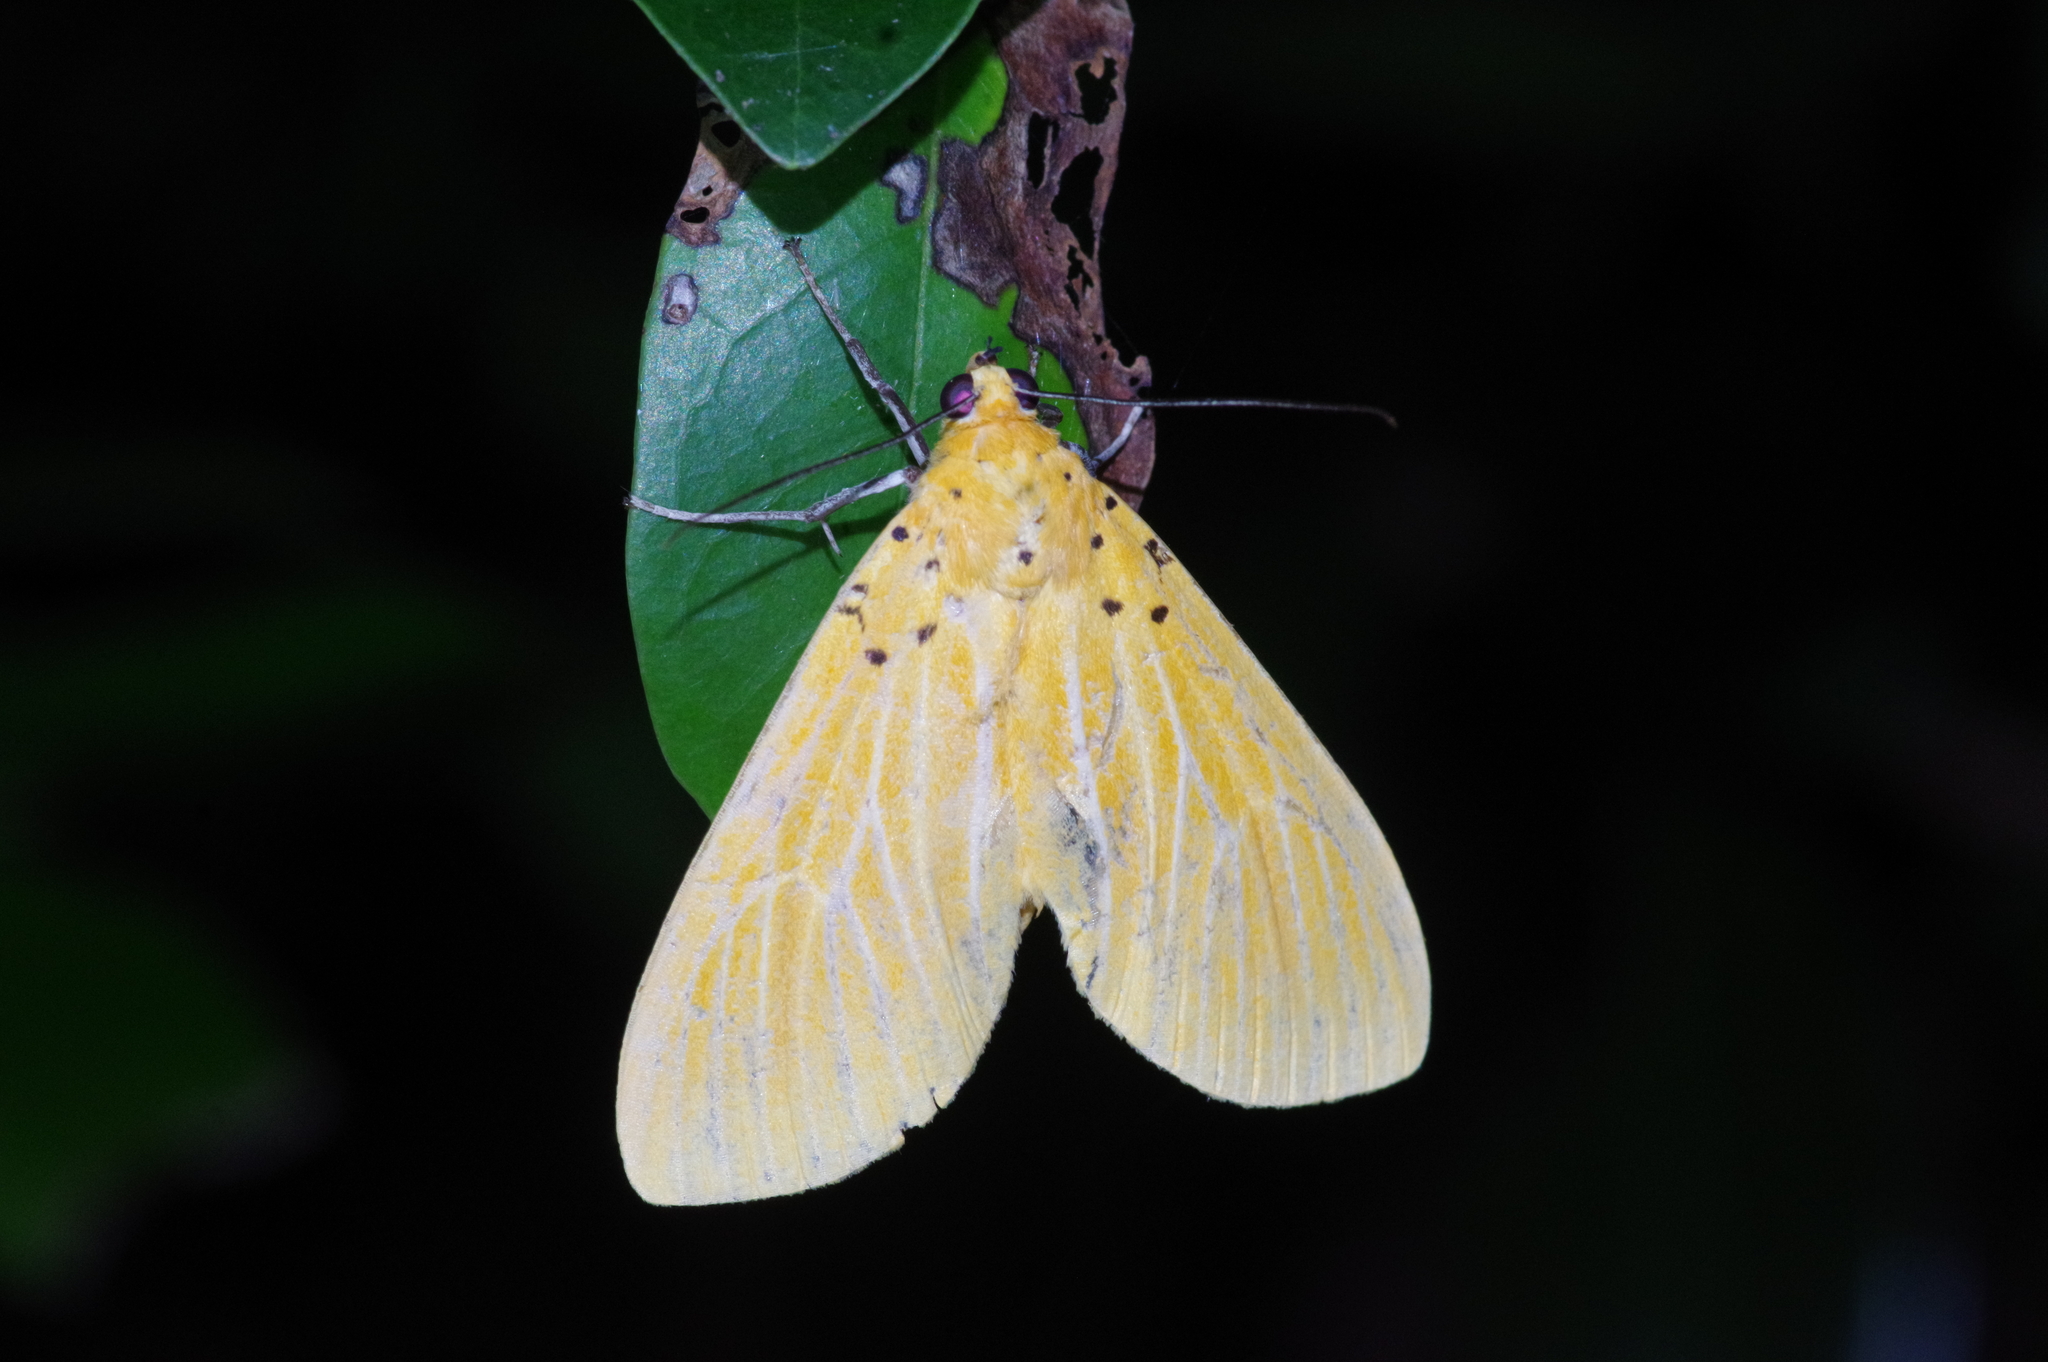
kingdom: Animalia
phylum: Arthropoda
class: Insecta
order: Lepidoptera
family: Erebidae
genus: Asota
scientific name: Asota egens
